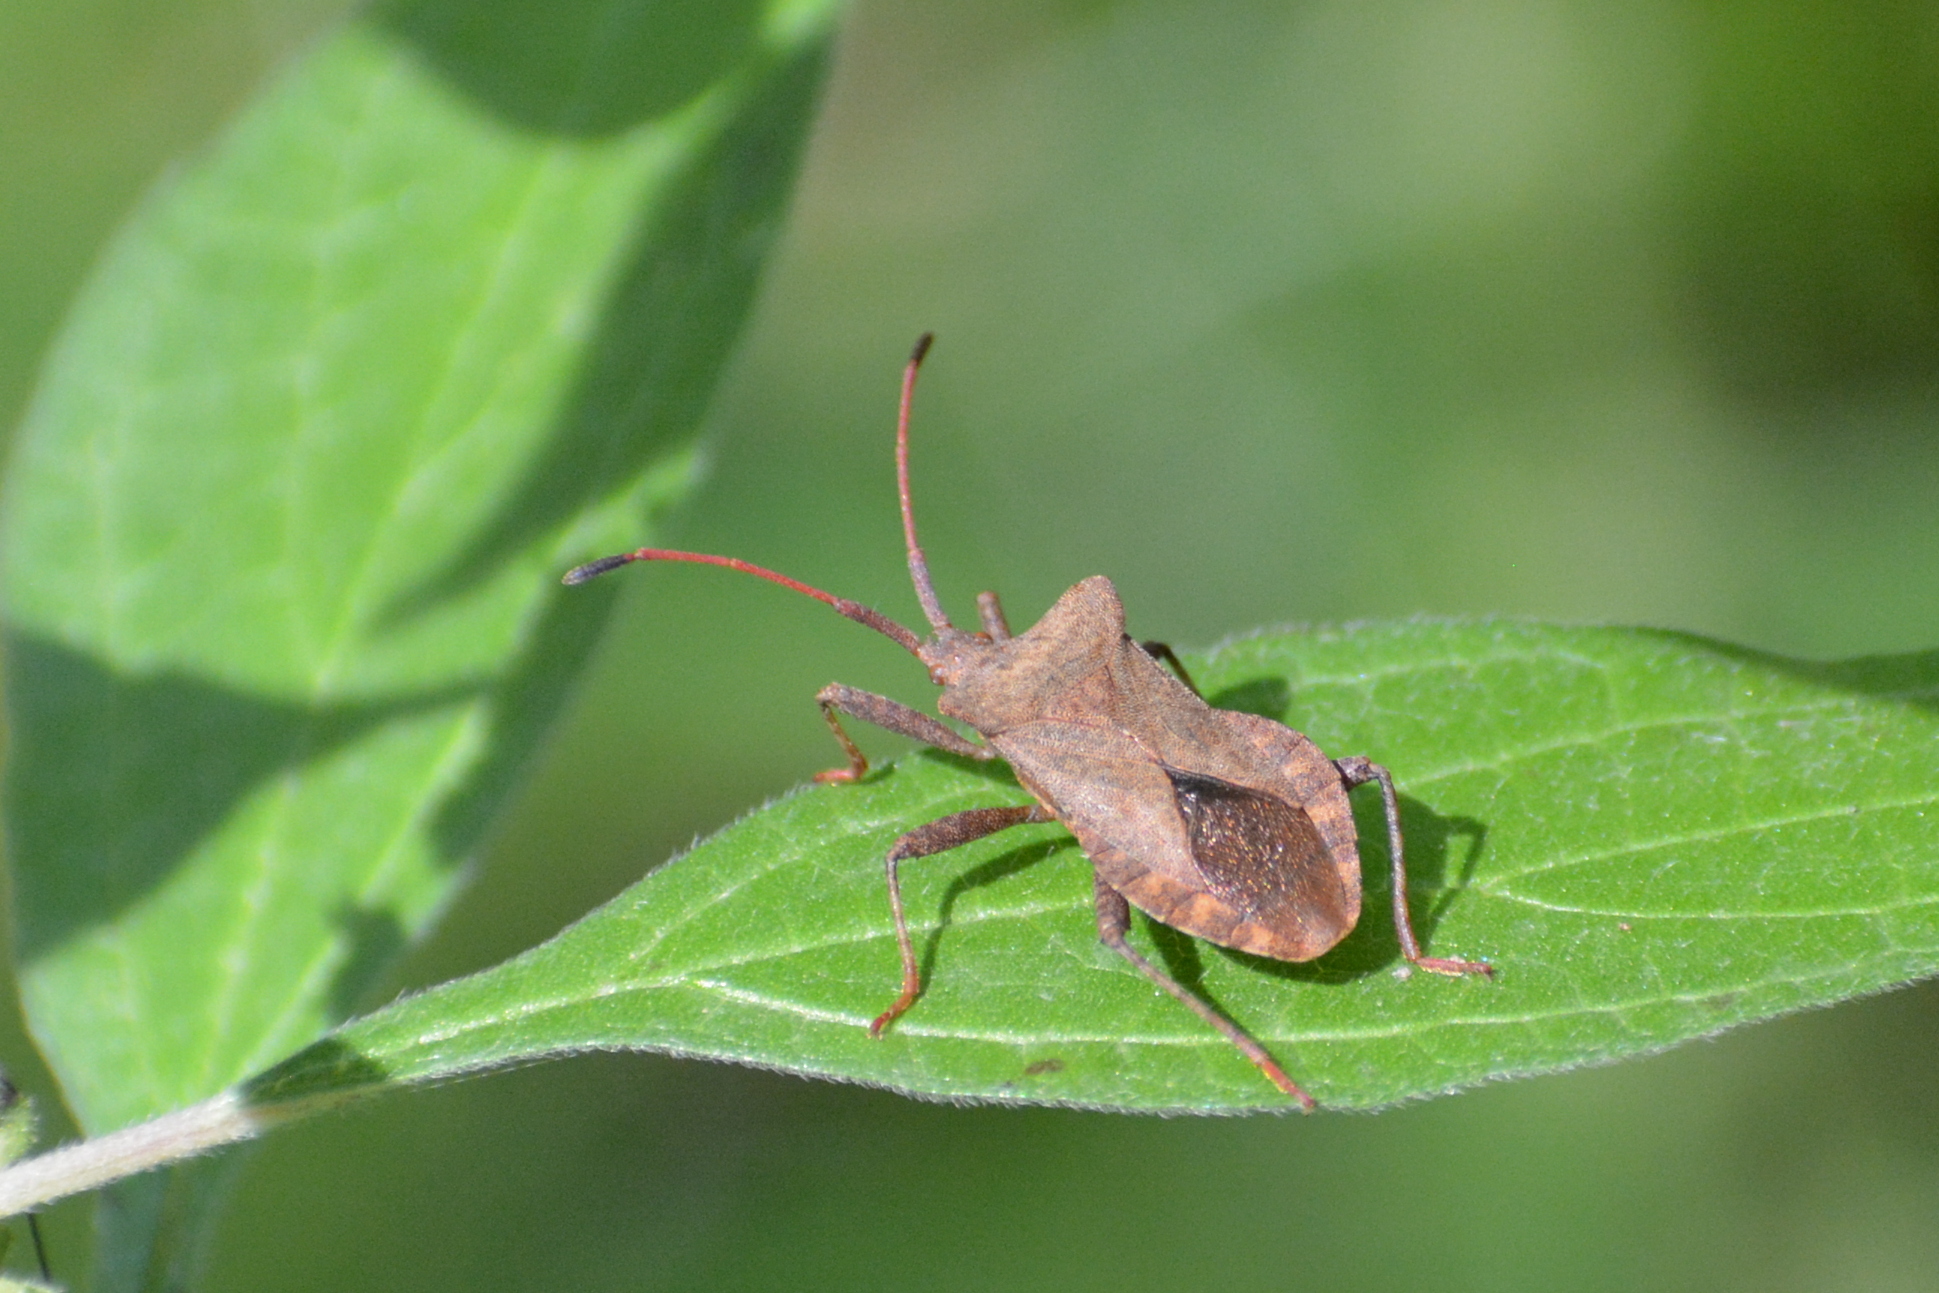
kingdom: Animalia
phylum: Arthropoda
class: Insecta
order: Hemiptera
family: Coreidae
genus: Coreus
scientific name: Coreus marginatus
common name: Dock bug
